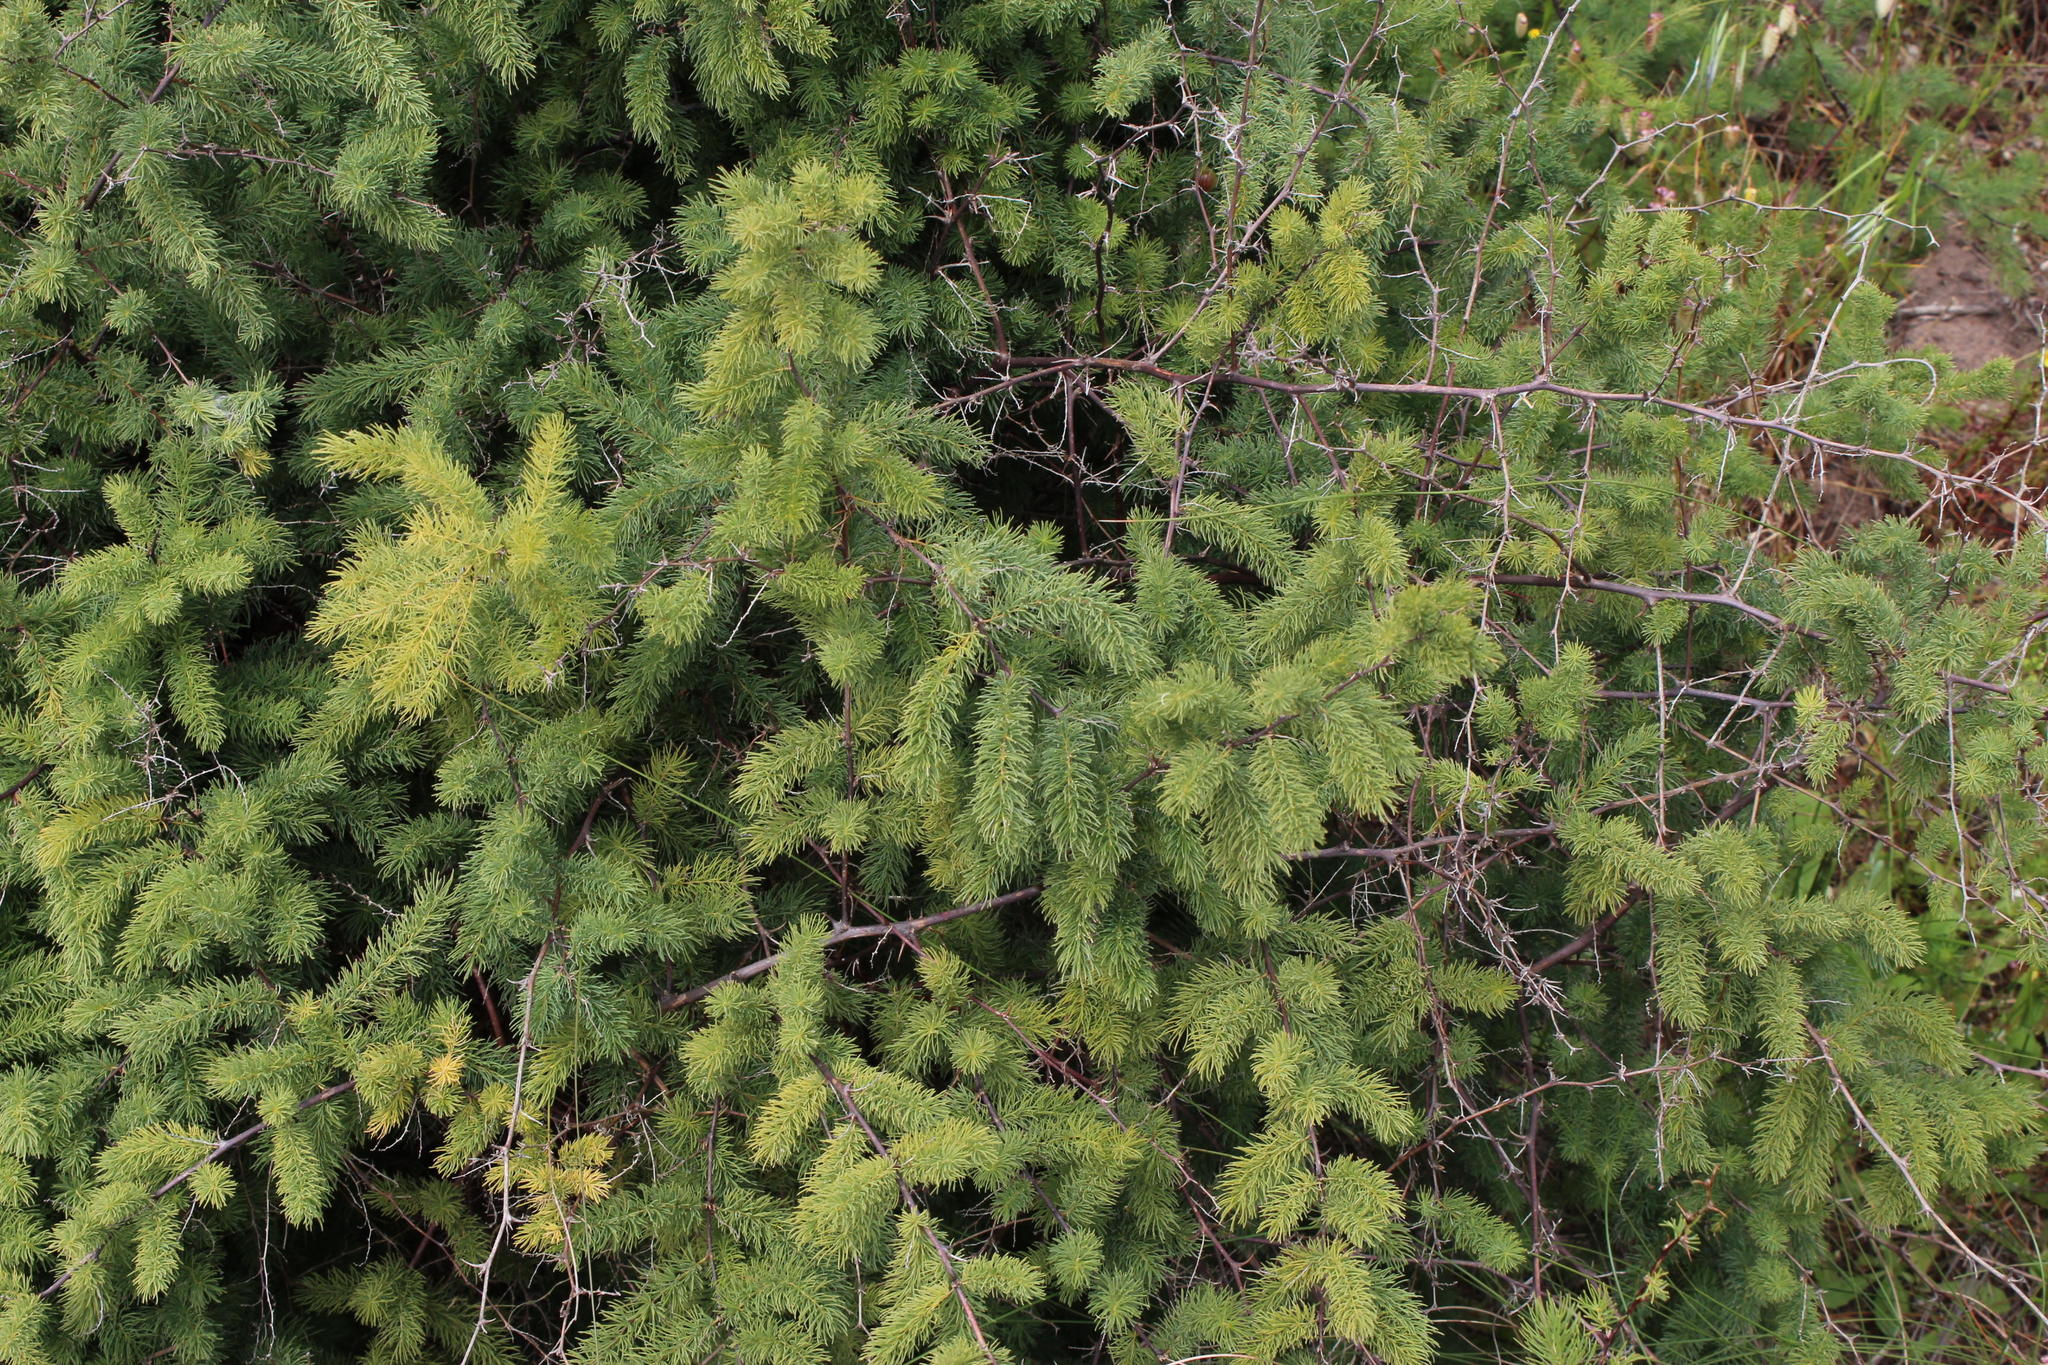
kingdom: Plantae
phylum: Tracheophyta
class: Liliopsida
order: Asparagales
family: Asparagaceae
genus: Asparagus
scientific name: Asparagus rubicundus
